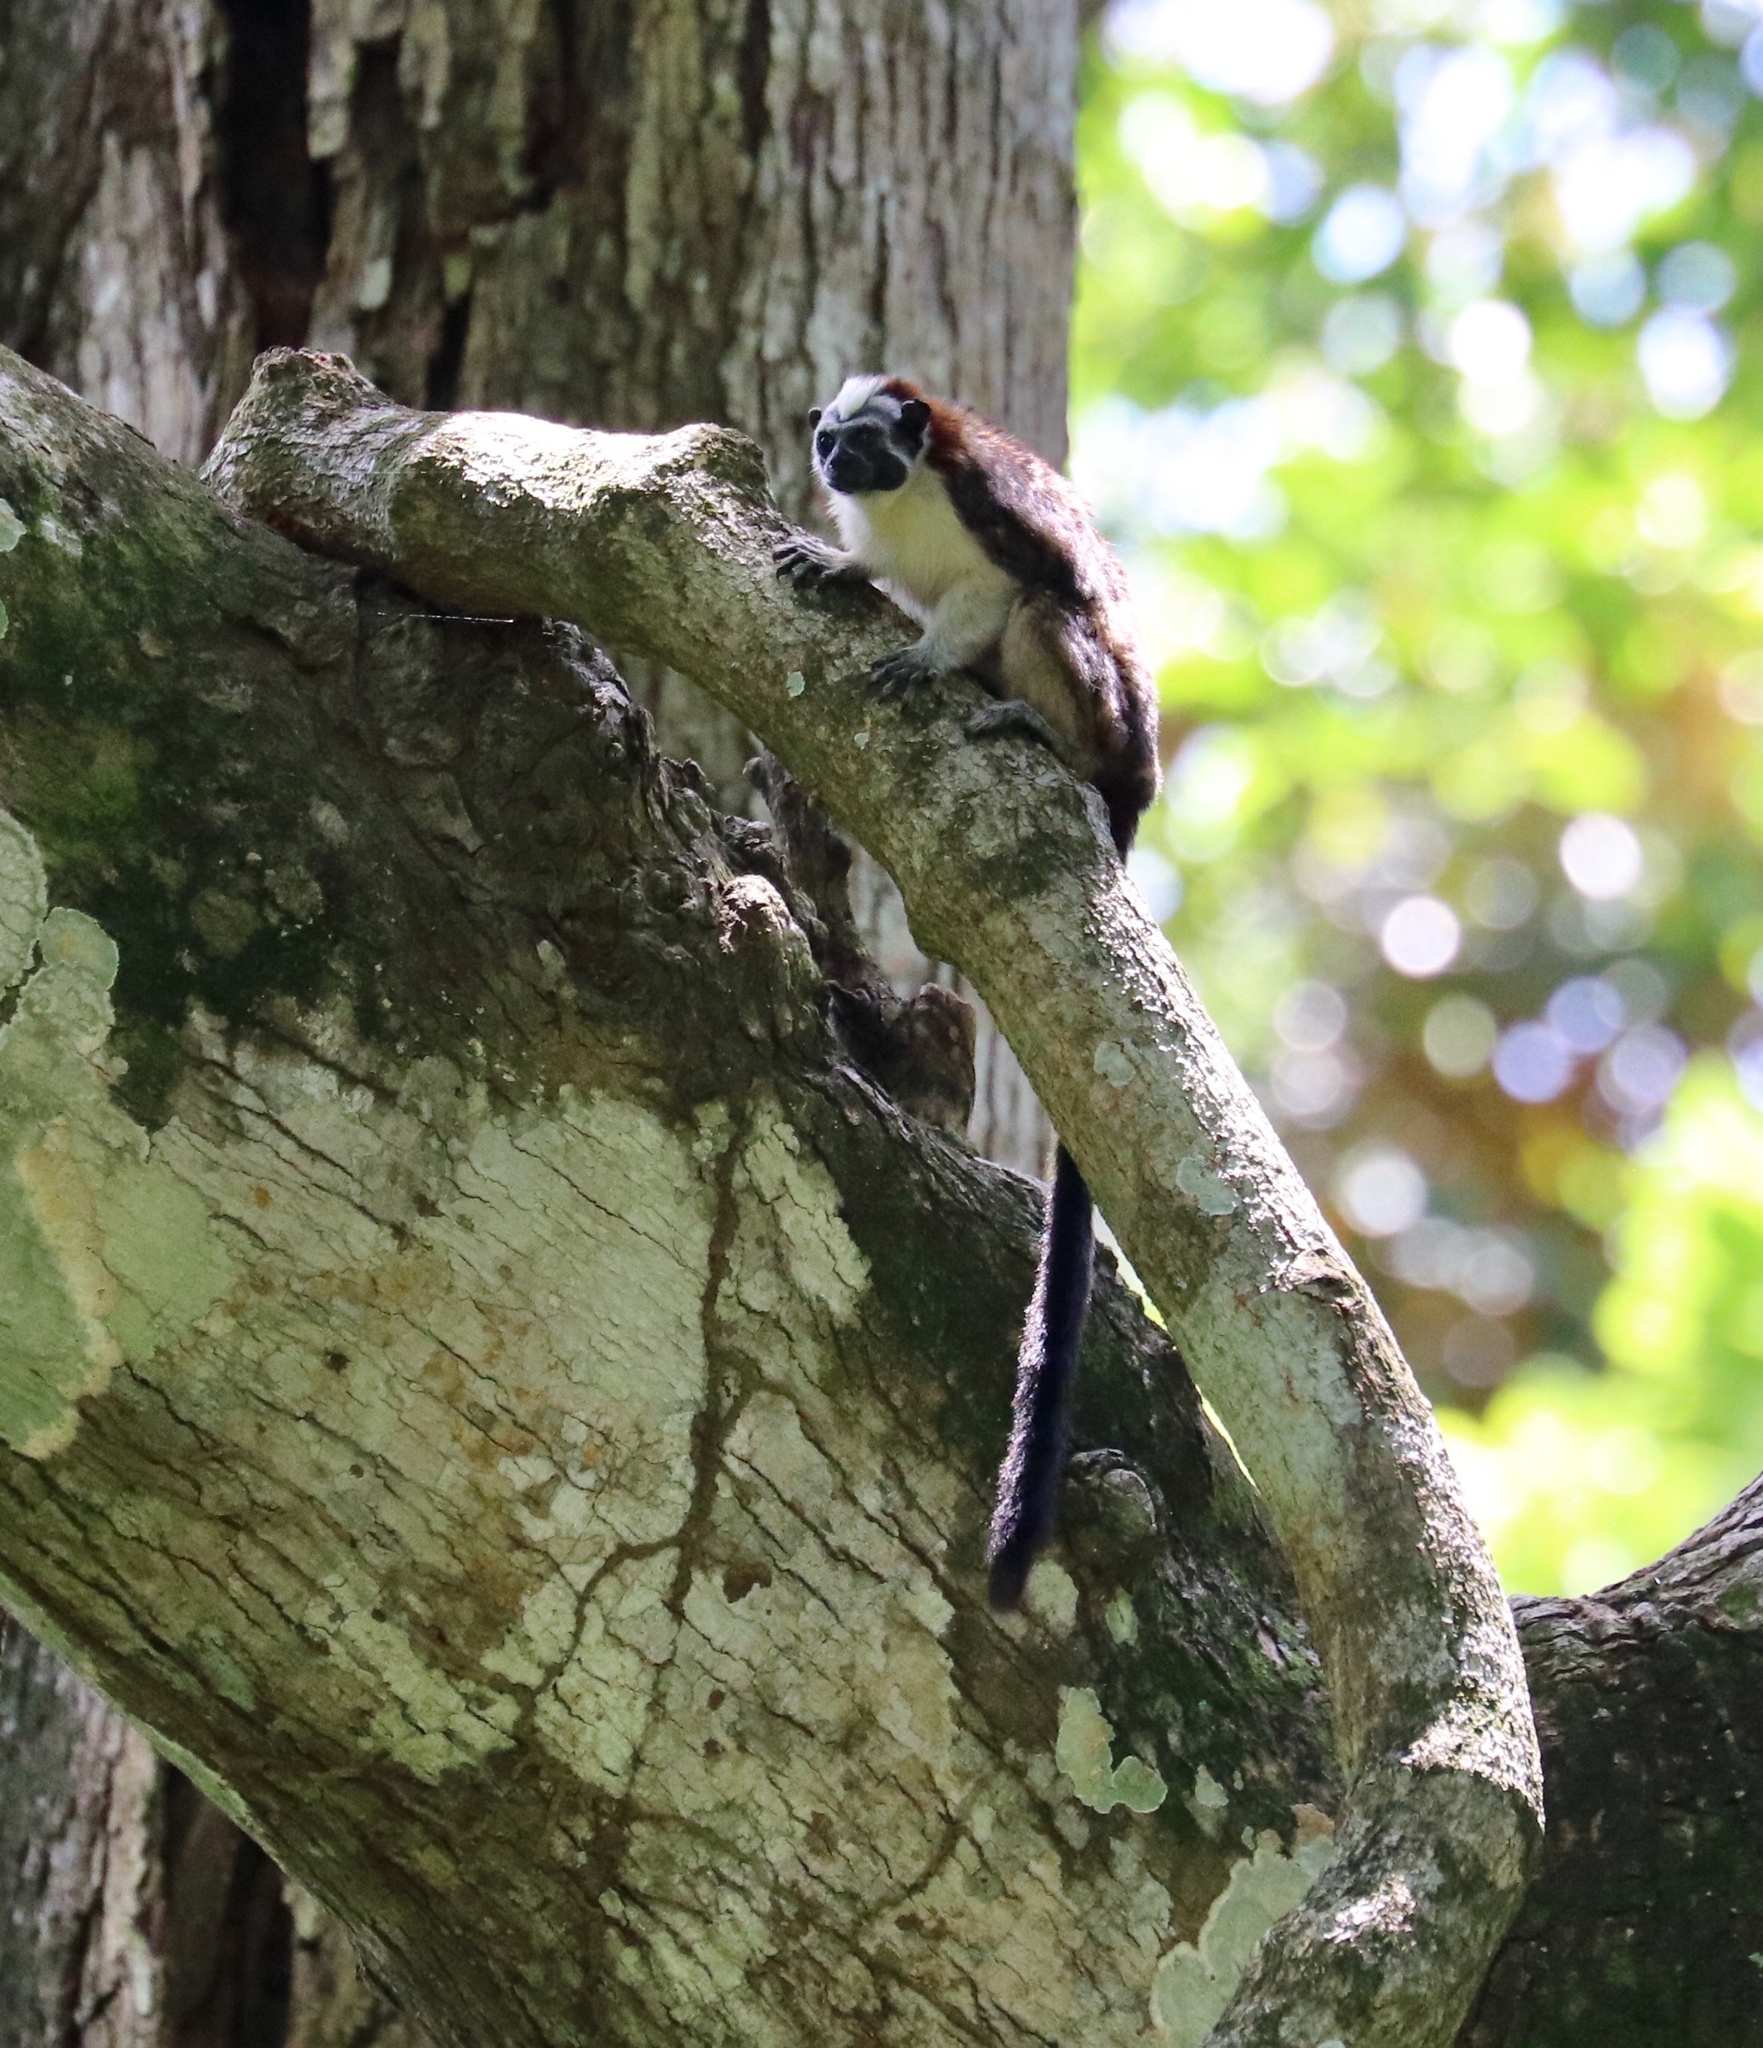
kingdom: Animalia
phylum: Chordata
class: Mammalia
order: Primates
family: Callitrichidae
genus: Saguinus
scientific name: Saguinus geoffroyi
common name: Geoffroy s tamarin
